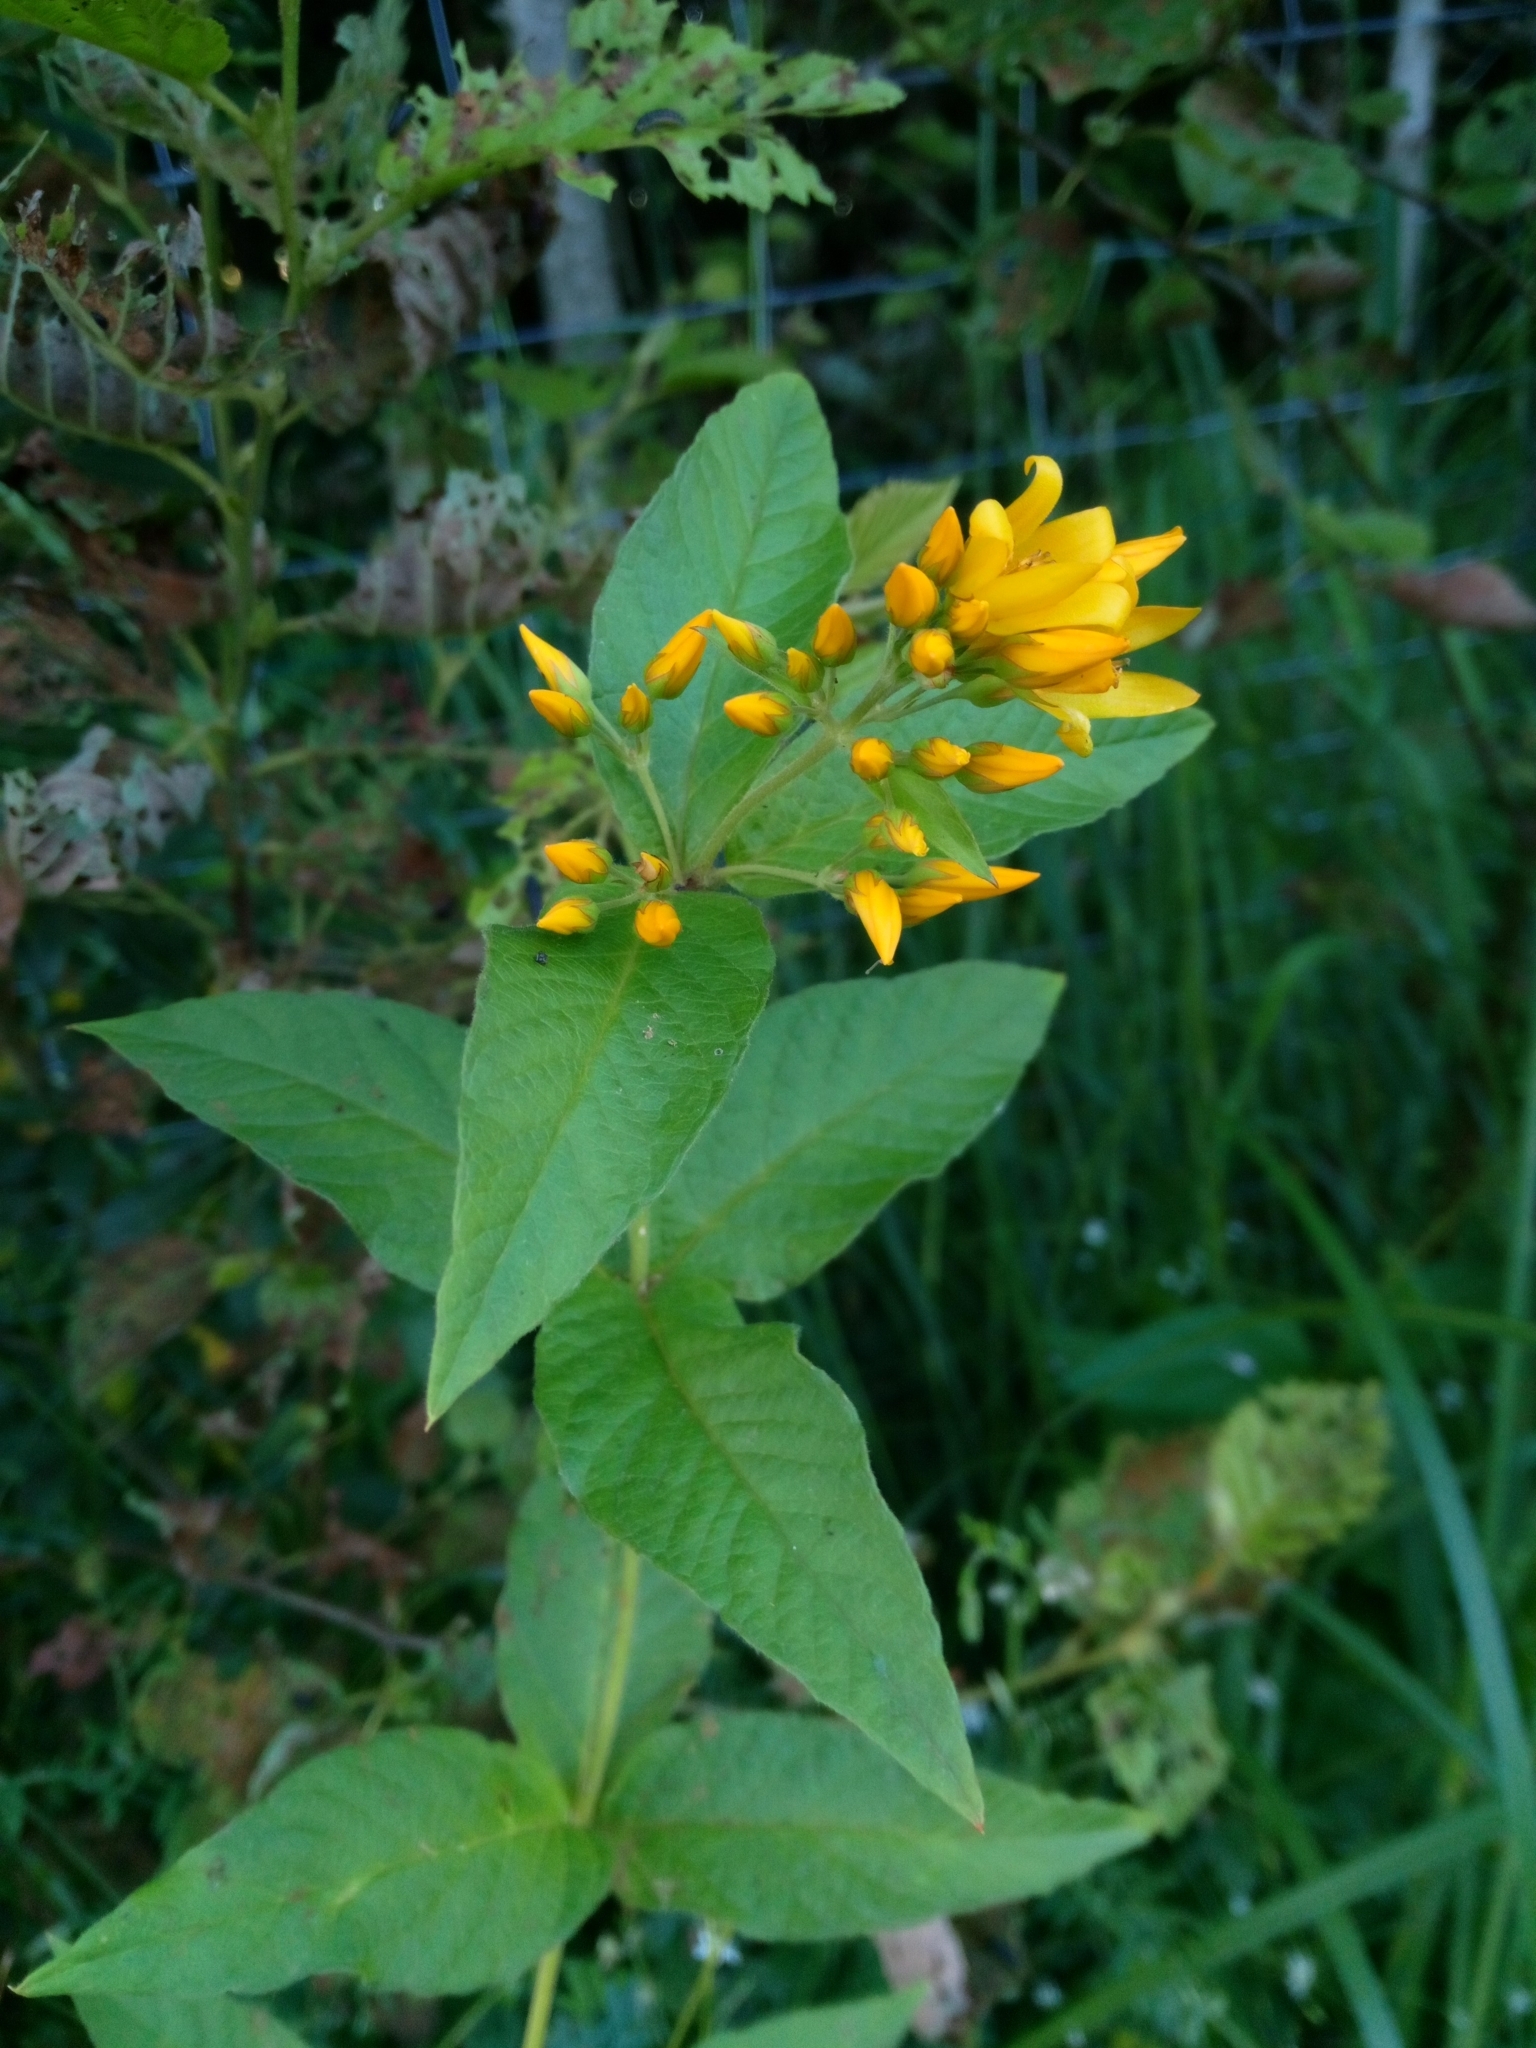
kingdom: Plantae
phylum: Tracheophyta
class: Magnoliopsida
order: Ericales
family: Primulaceae
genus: Lysimachia
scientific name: Lysimachia vulgaris
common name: Yellow loosestrife
